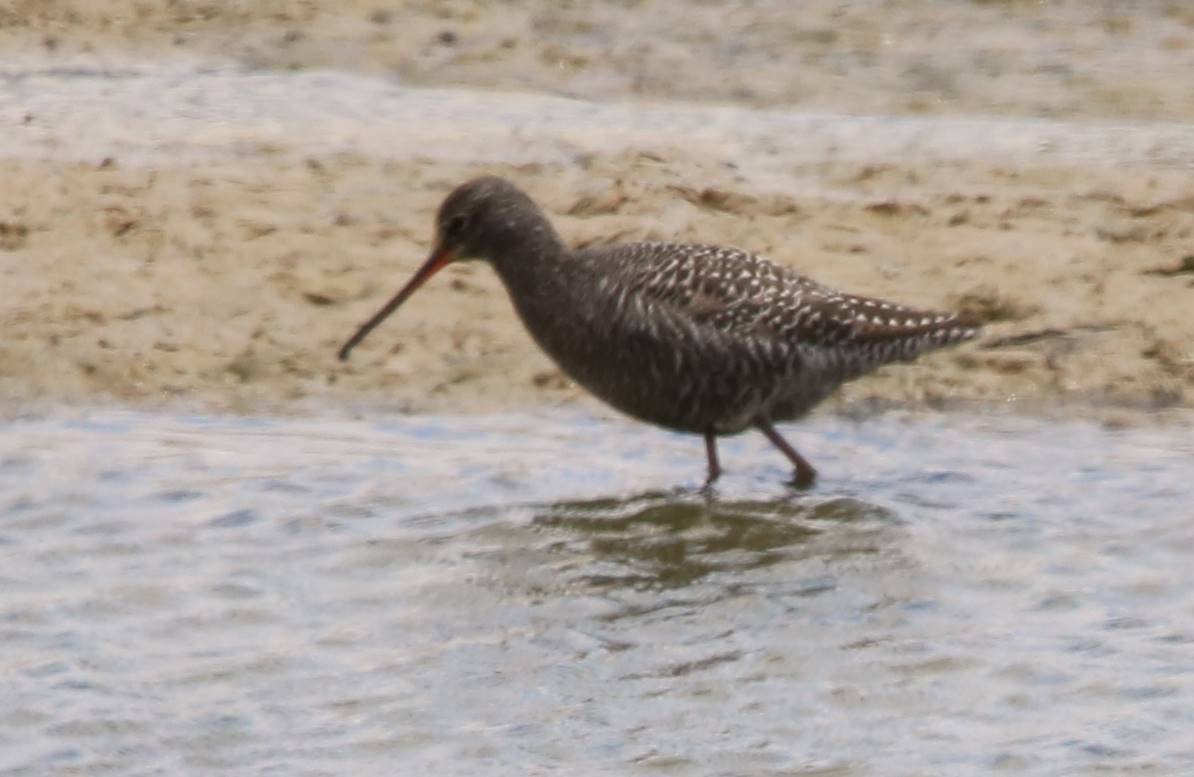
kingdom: Animalia
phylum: Chordata
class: Aves
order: Charadriiformes
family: Scolopacidae
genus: Tringa
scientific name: Tringa erythropus
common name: Spotted redshank
